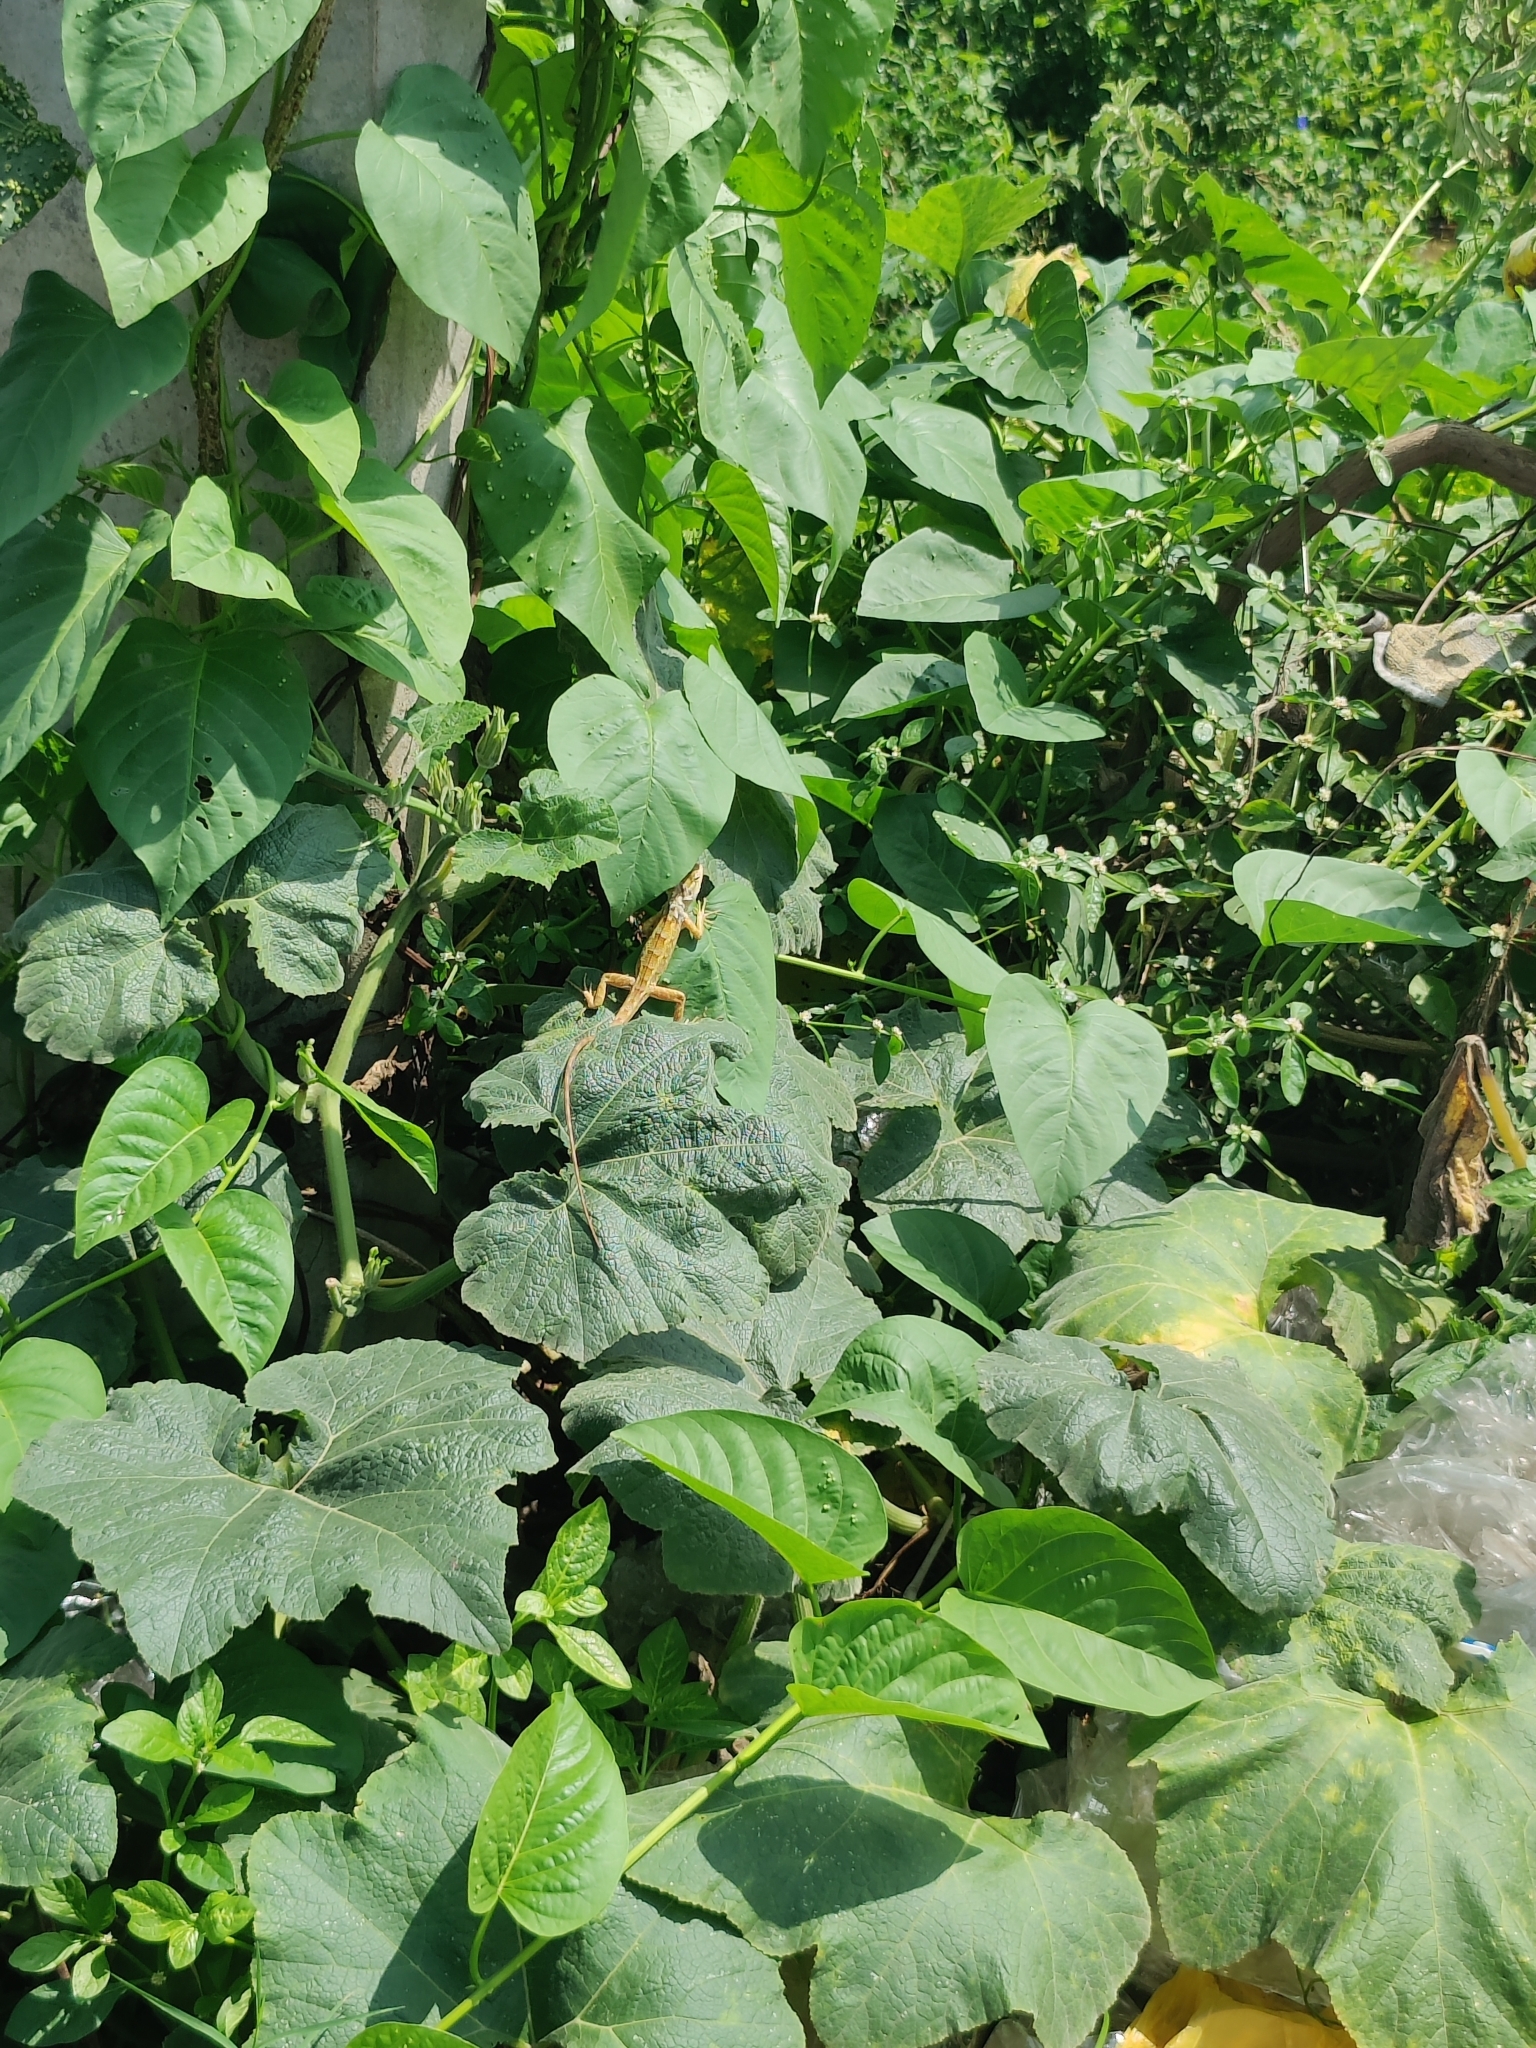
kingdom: Animalia
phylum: Chordata
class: Squamata
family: Agamidae
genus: Calotes
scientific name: Calotes versicolor
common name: Oriental garden lizard
